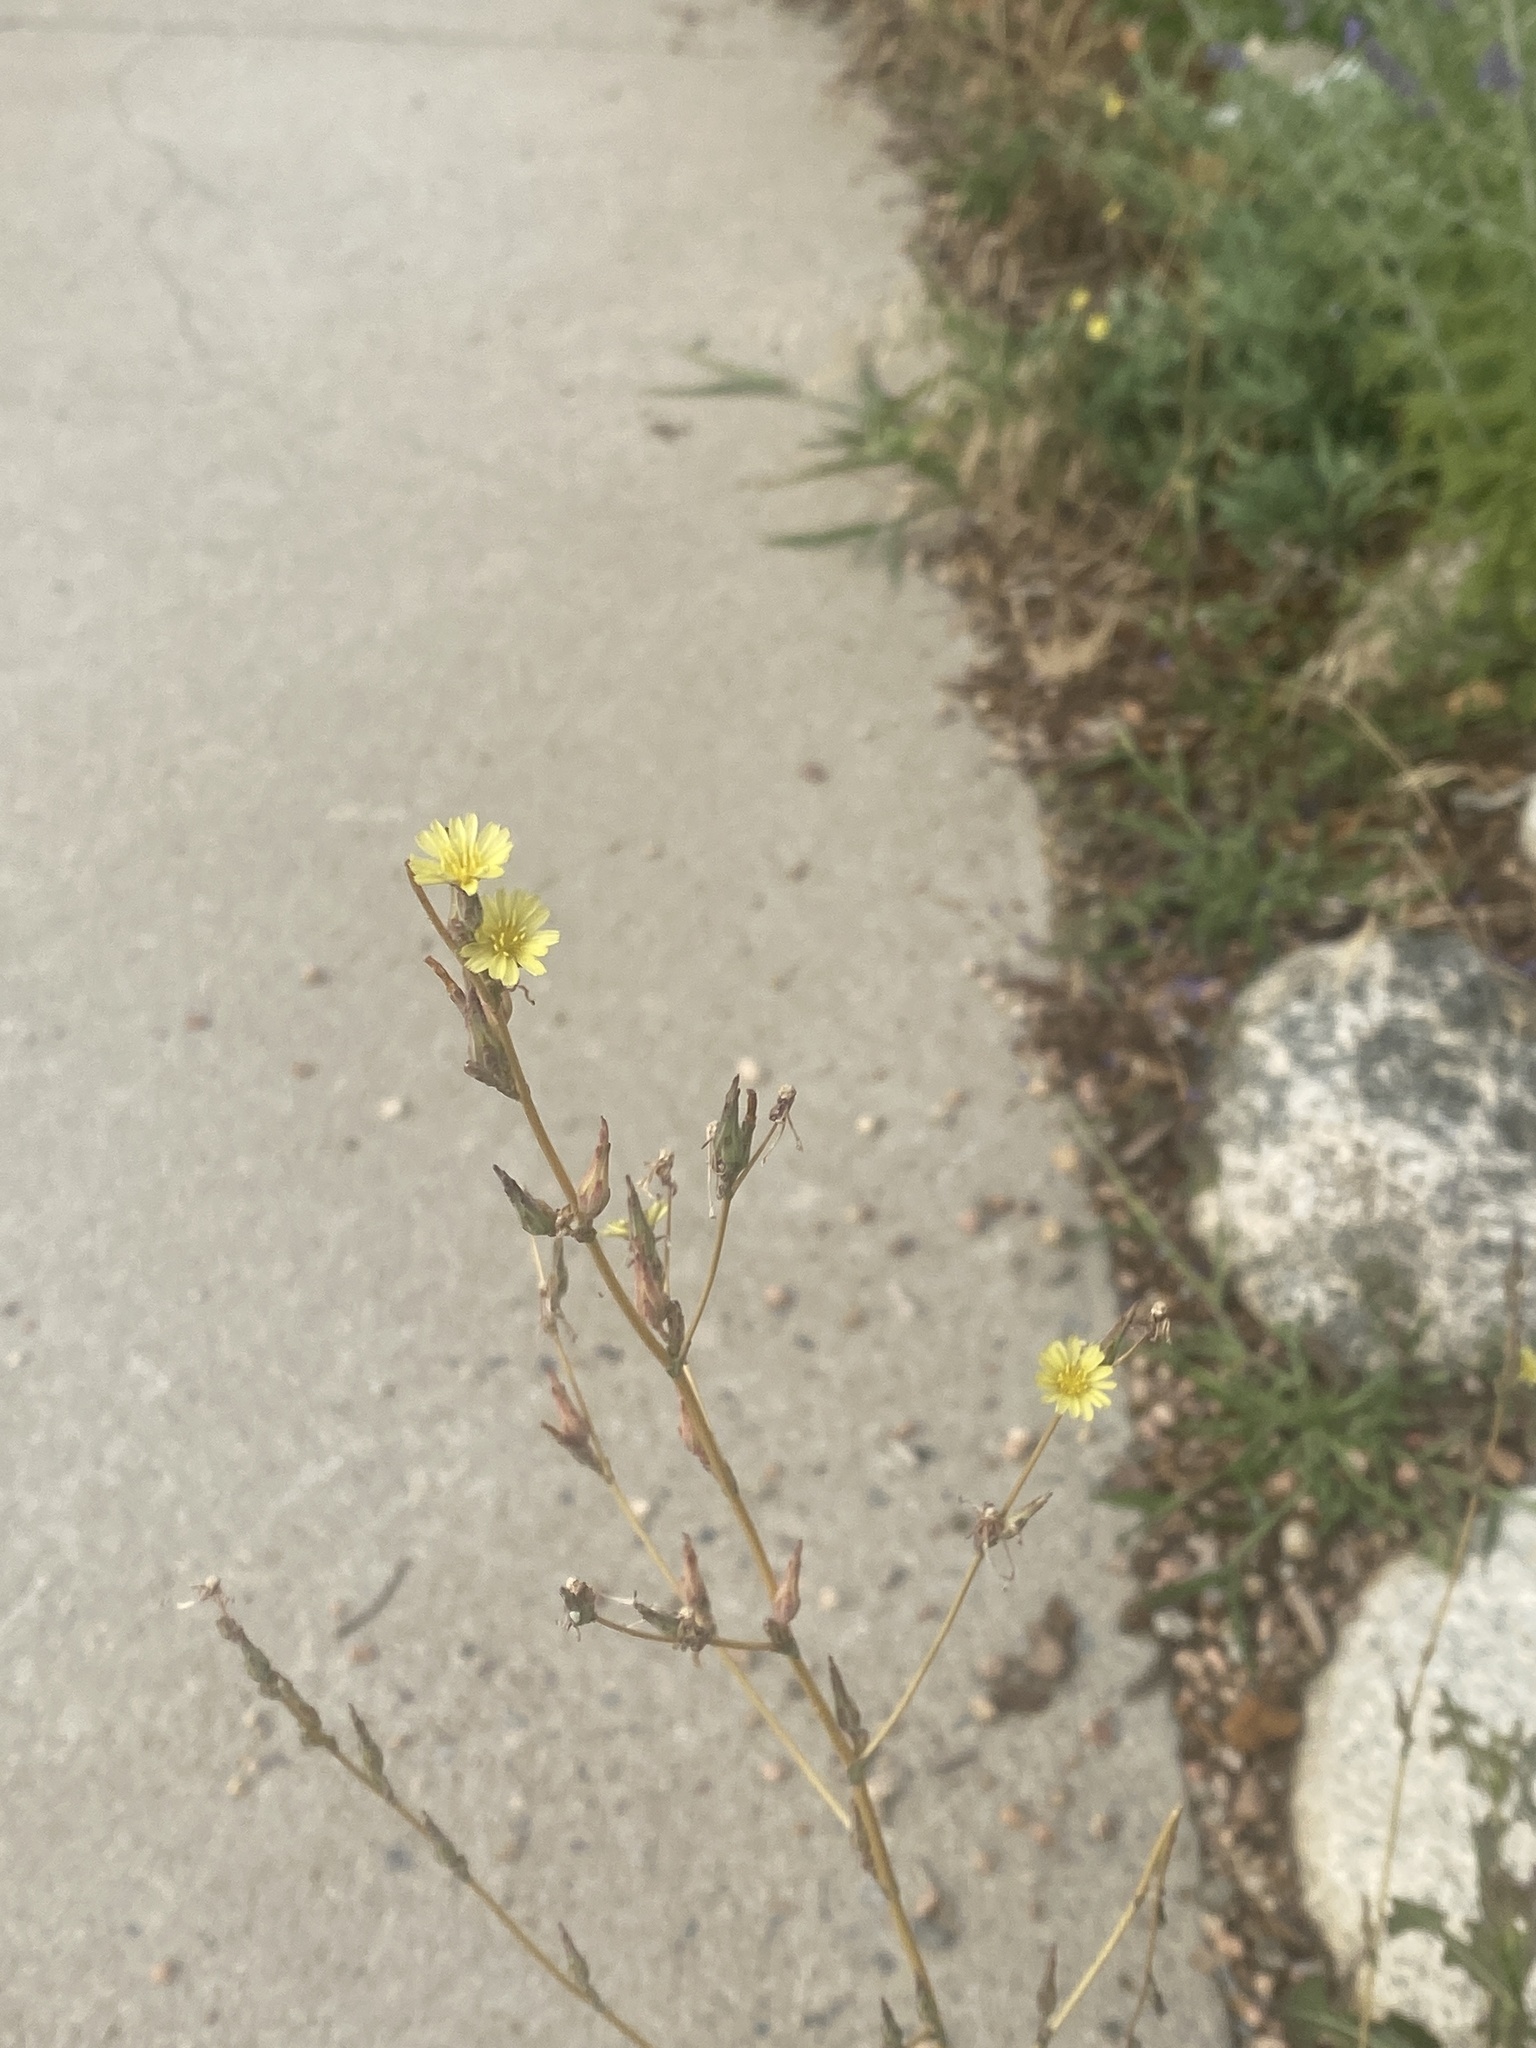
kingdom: Plantae
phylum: Tracheophyta
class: Magnoliopsida
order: Asterales
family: Asteraceae
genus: Lactuca
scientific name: Lactuca serriola
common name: Prickly lettuce
